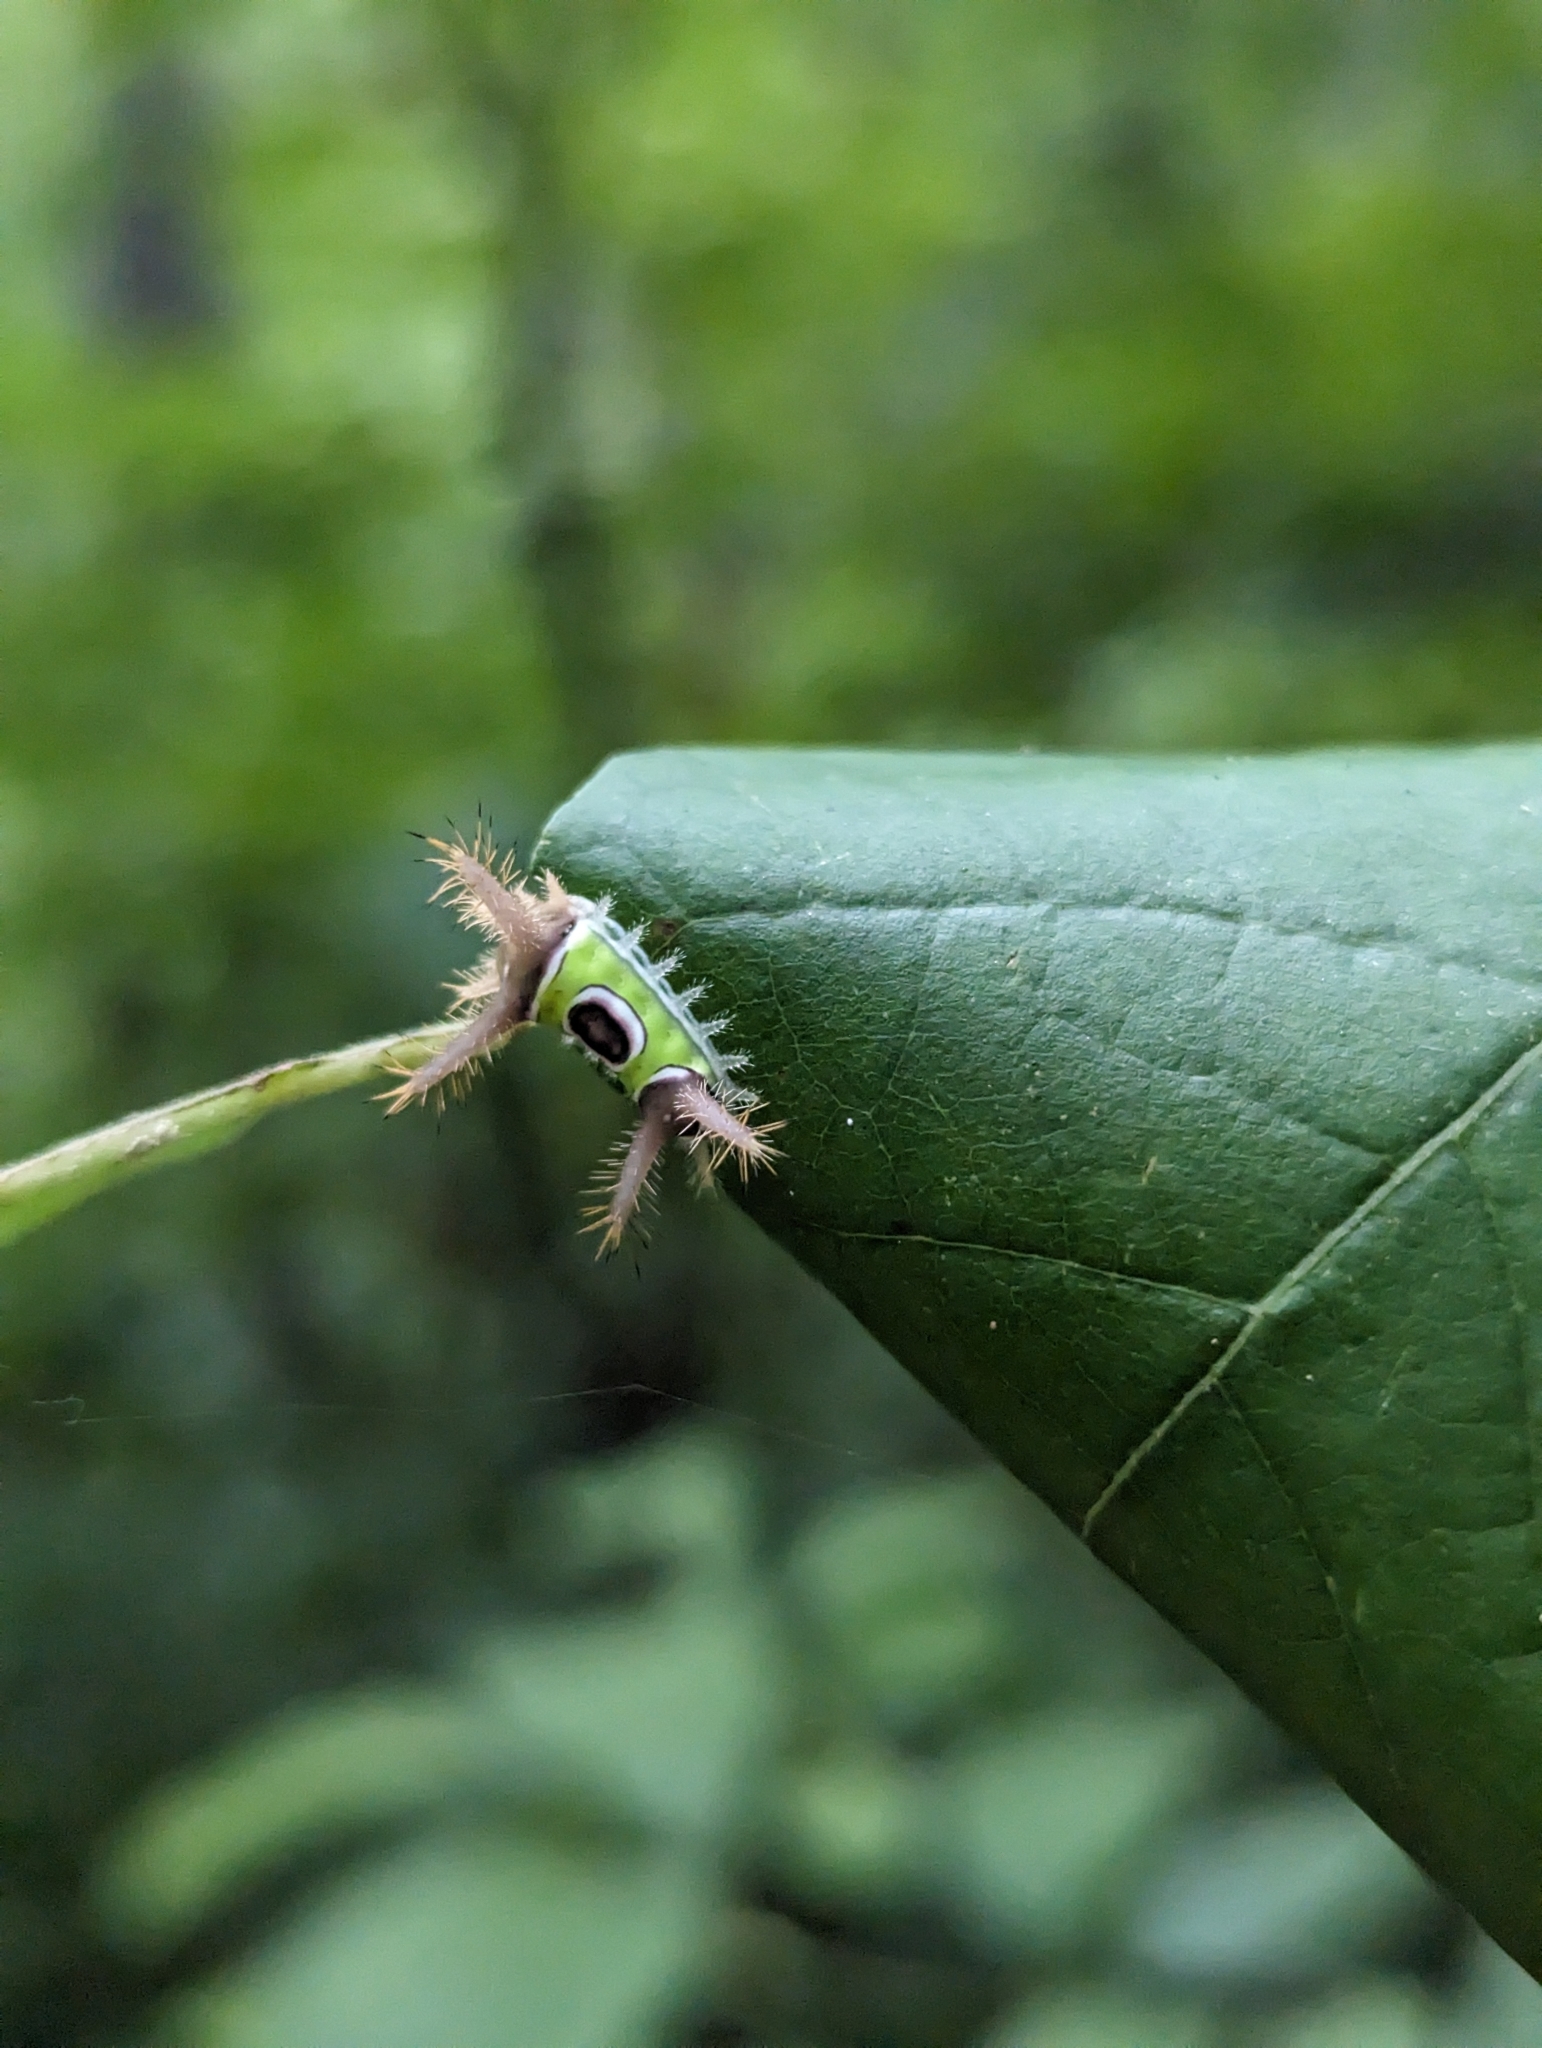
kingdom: Animalia
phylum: Arthropoda
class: Insecta
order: Lepidoptera
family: Limacodidae
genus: Acharia
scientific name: Acharia stimulea
